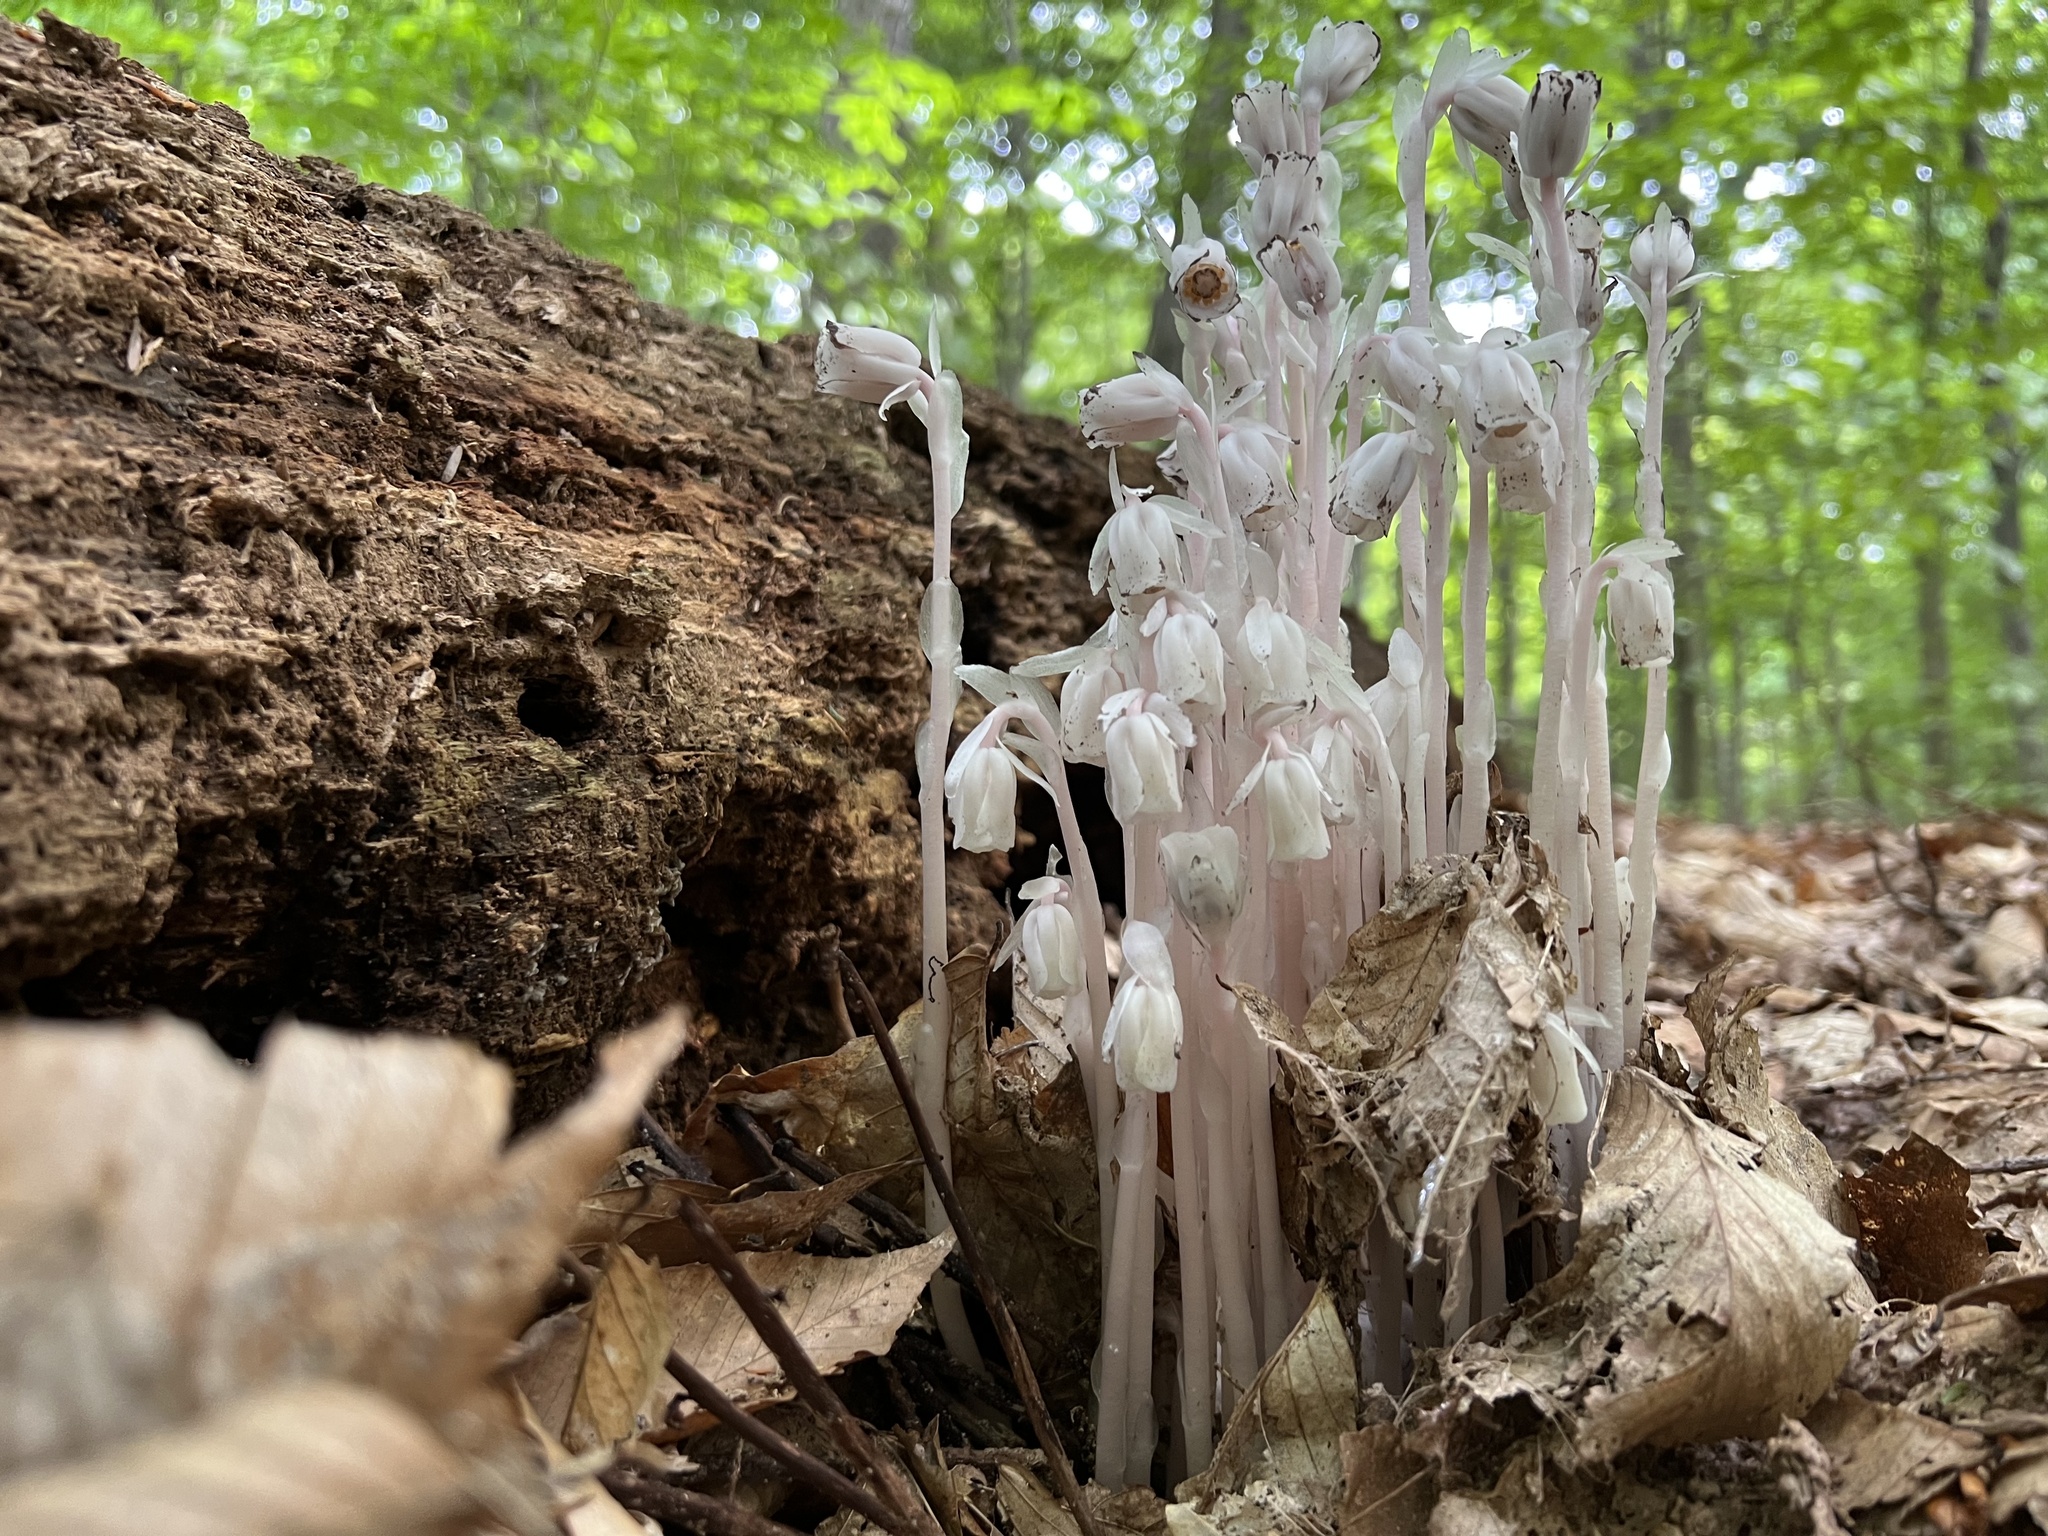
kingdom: Plantae
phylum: Tracheophyta
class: Magnoliopsida
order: Ericales
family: Ericaceae
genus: Monotropa
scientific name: Monotropa uniflora
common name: Convulsion root
